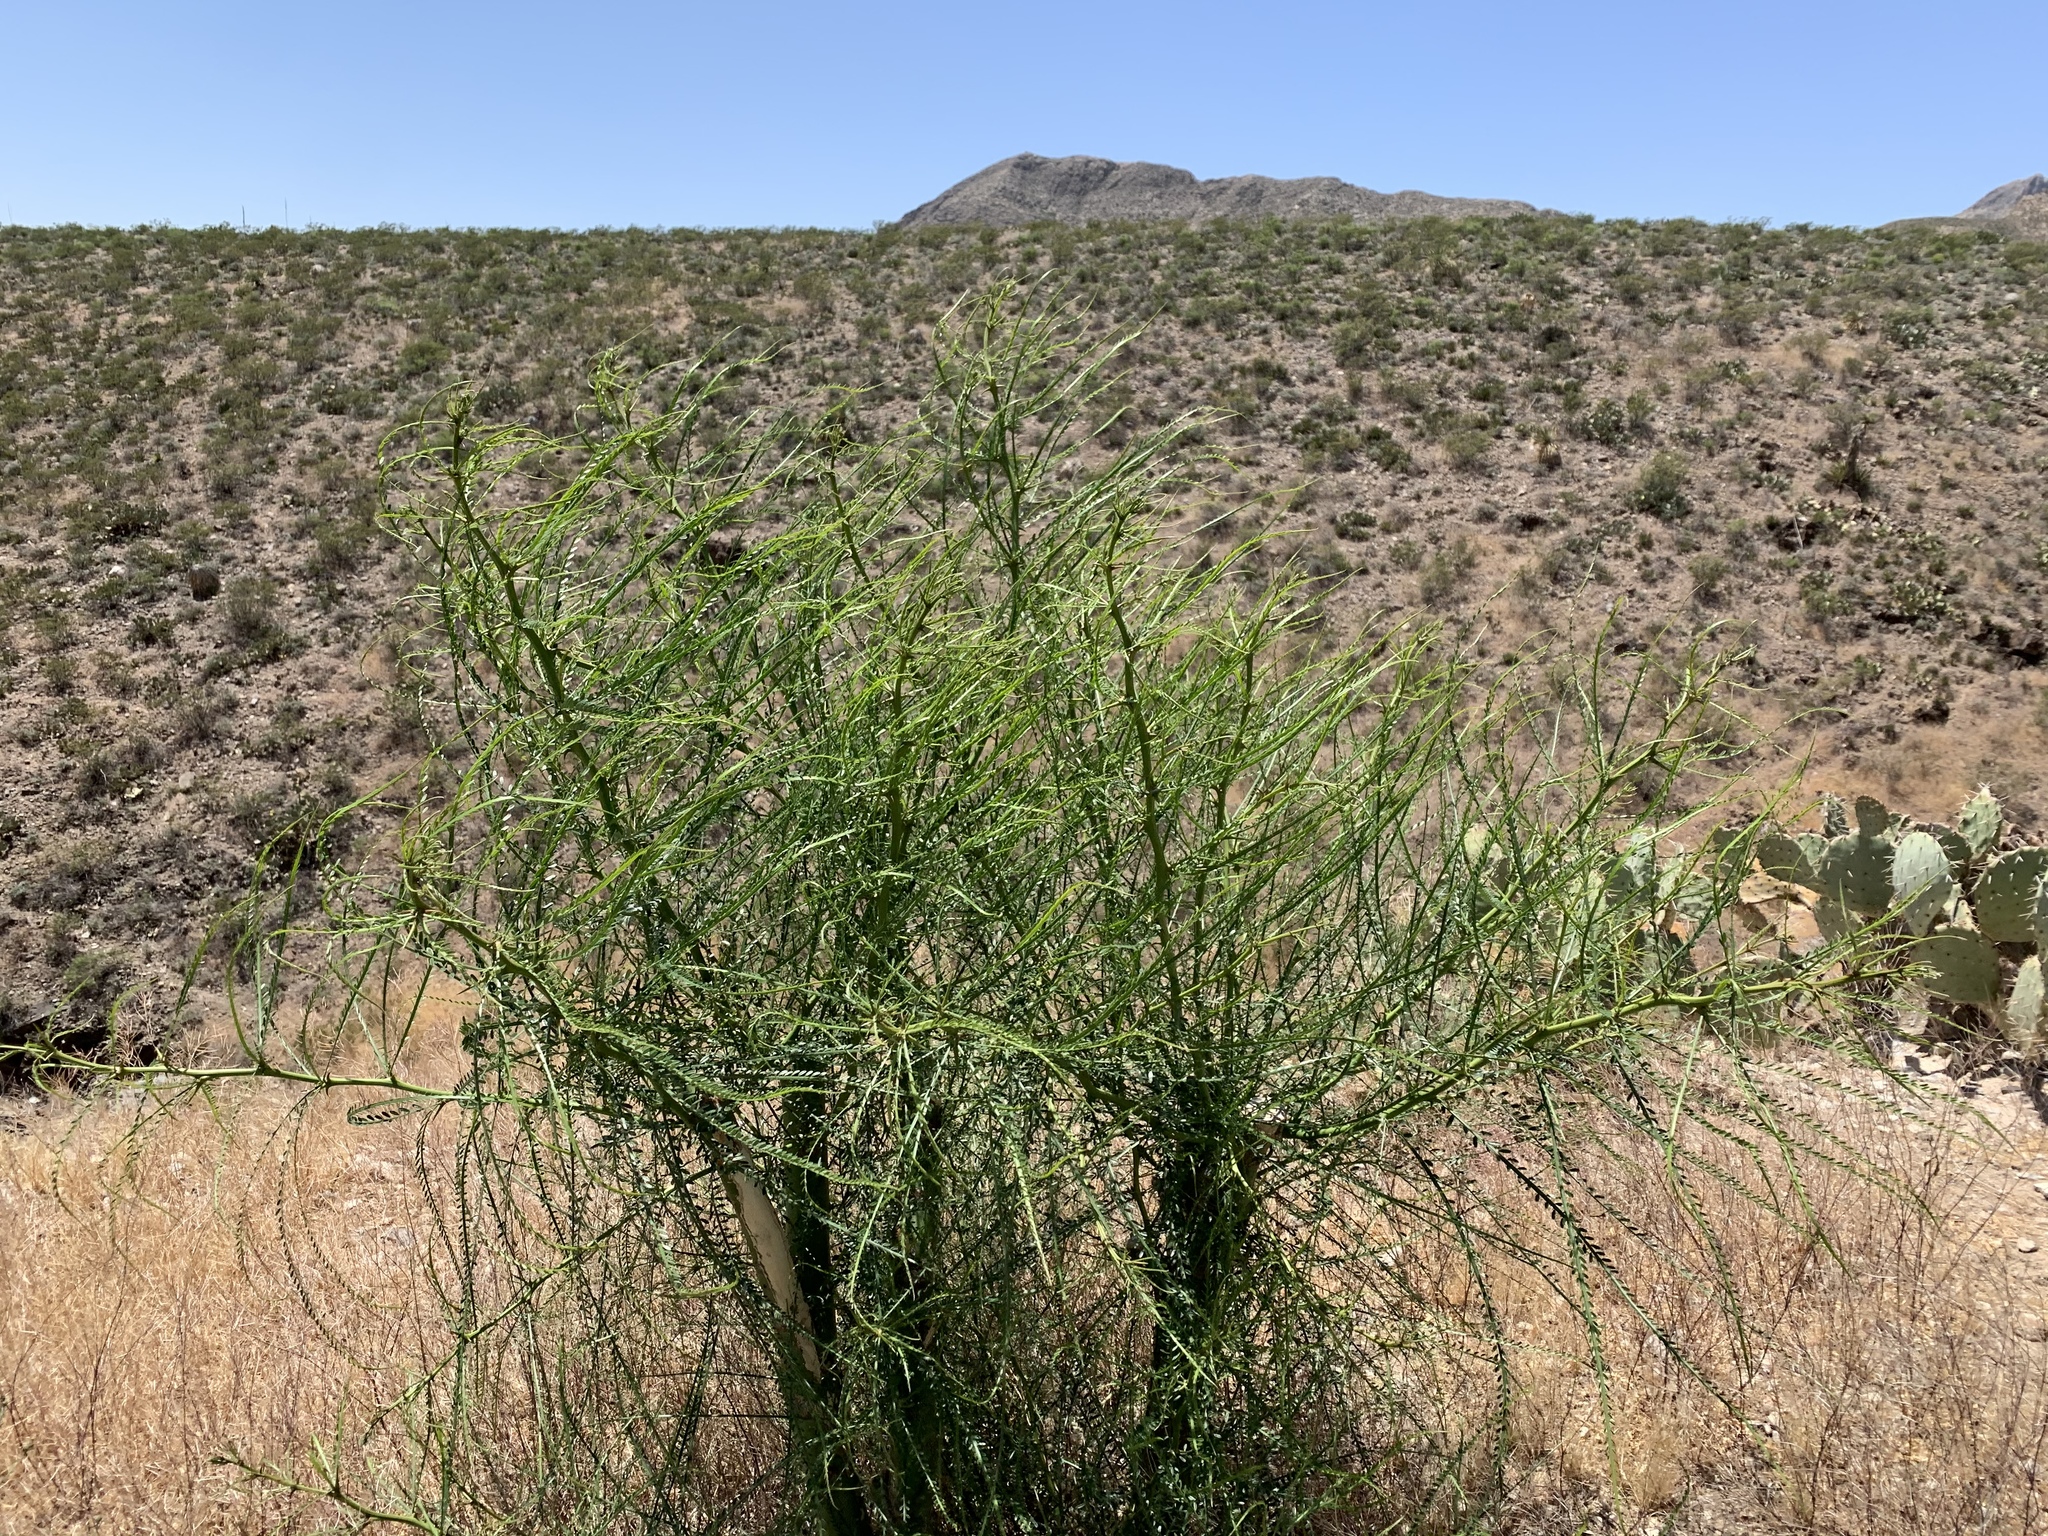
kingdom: Plantae
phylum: Tracheophyta
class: Magnoliopsida
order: Fabales
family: Fabaceae
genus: Parkinsonia
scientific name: Parkinsonia aculeata
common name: Jerusalem thorn
